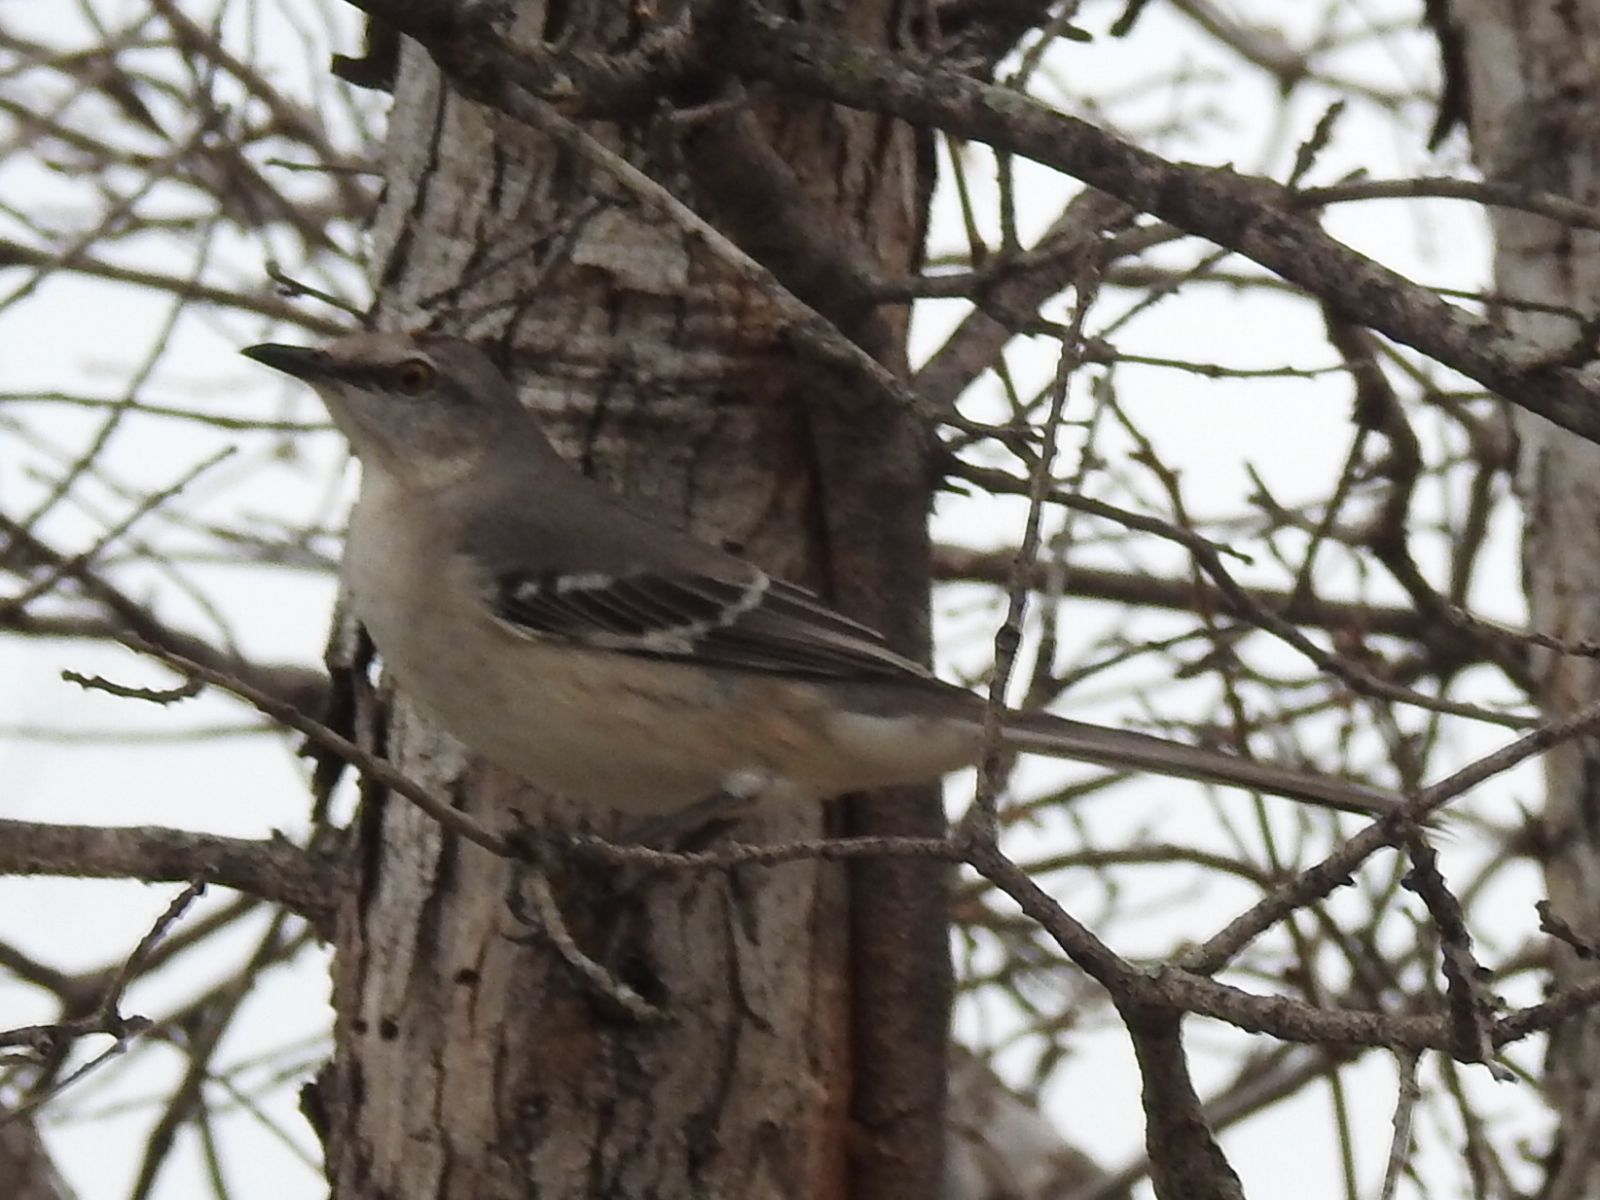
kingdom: Animalia
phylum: Chordata
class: Aves
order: Passeriformes
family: Mimidae
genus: Mimus
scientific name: Mimus polyglottos
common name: Northern mockingbird
